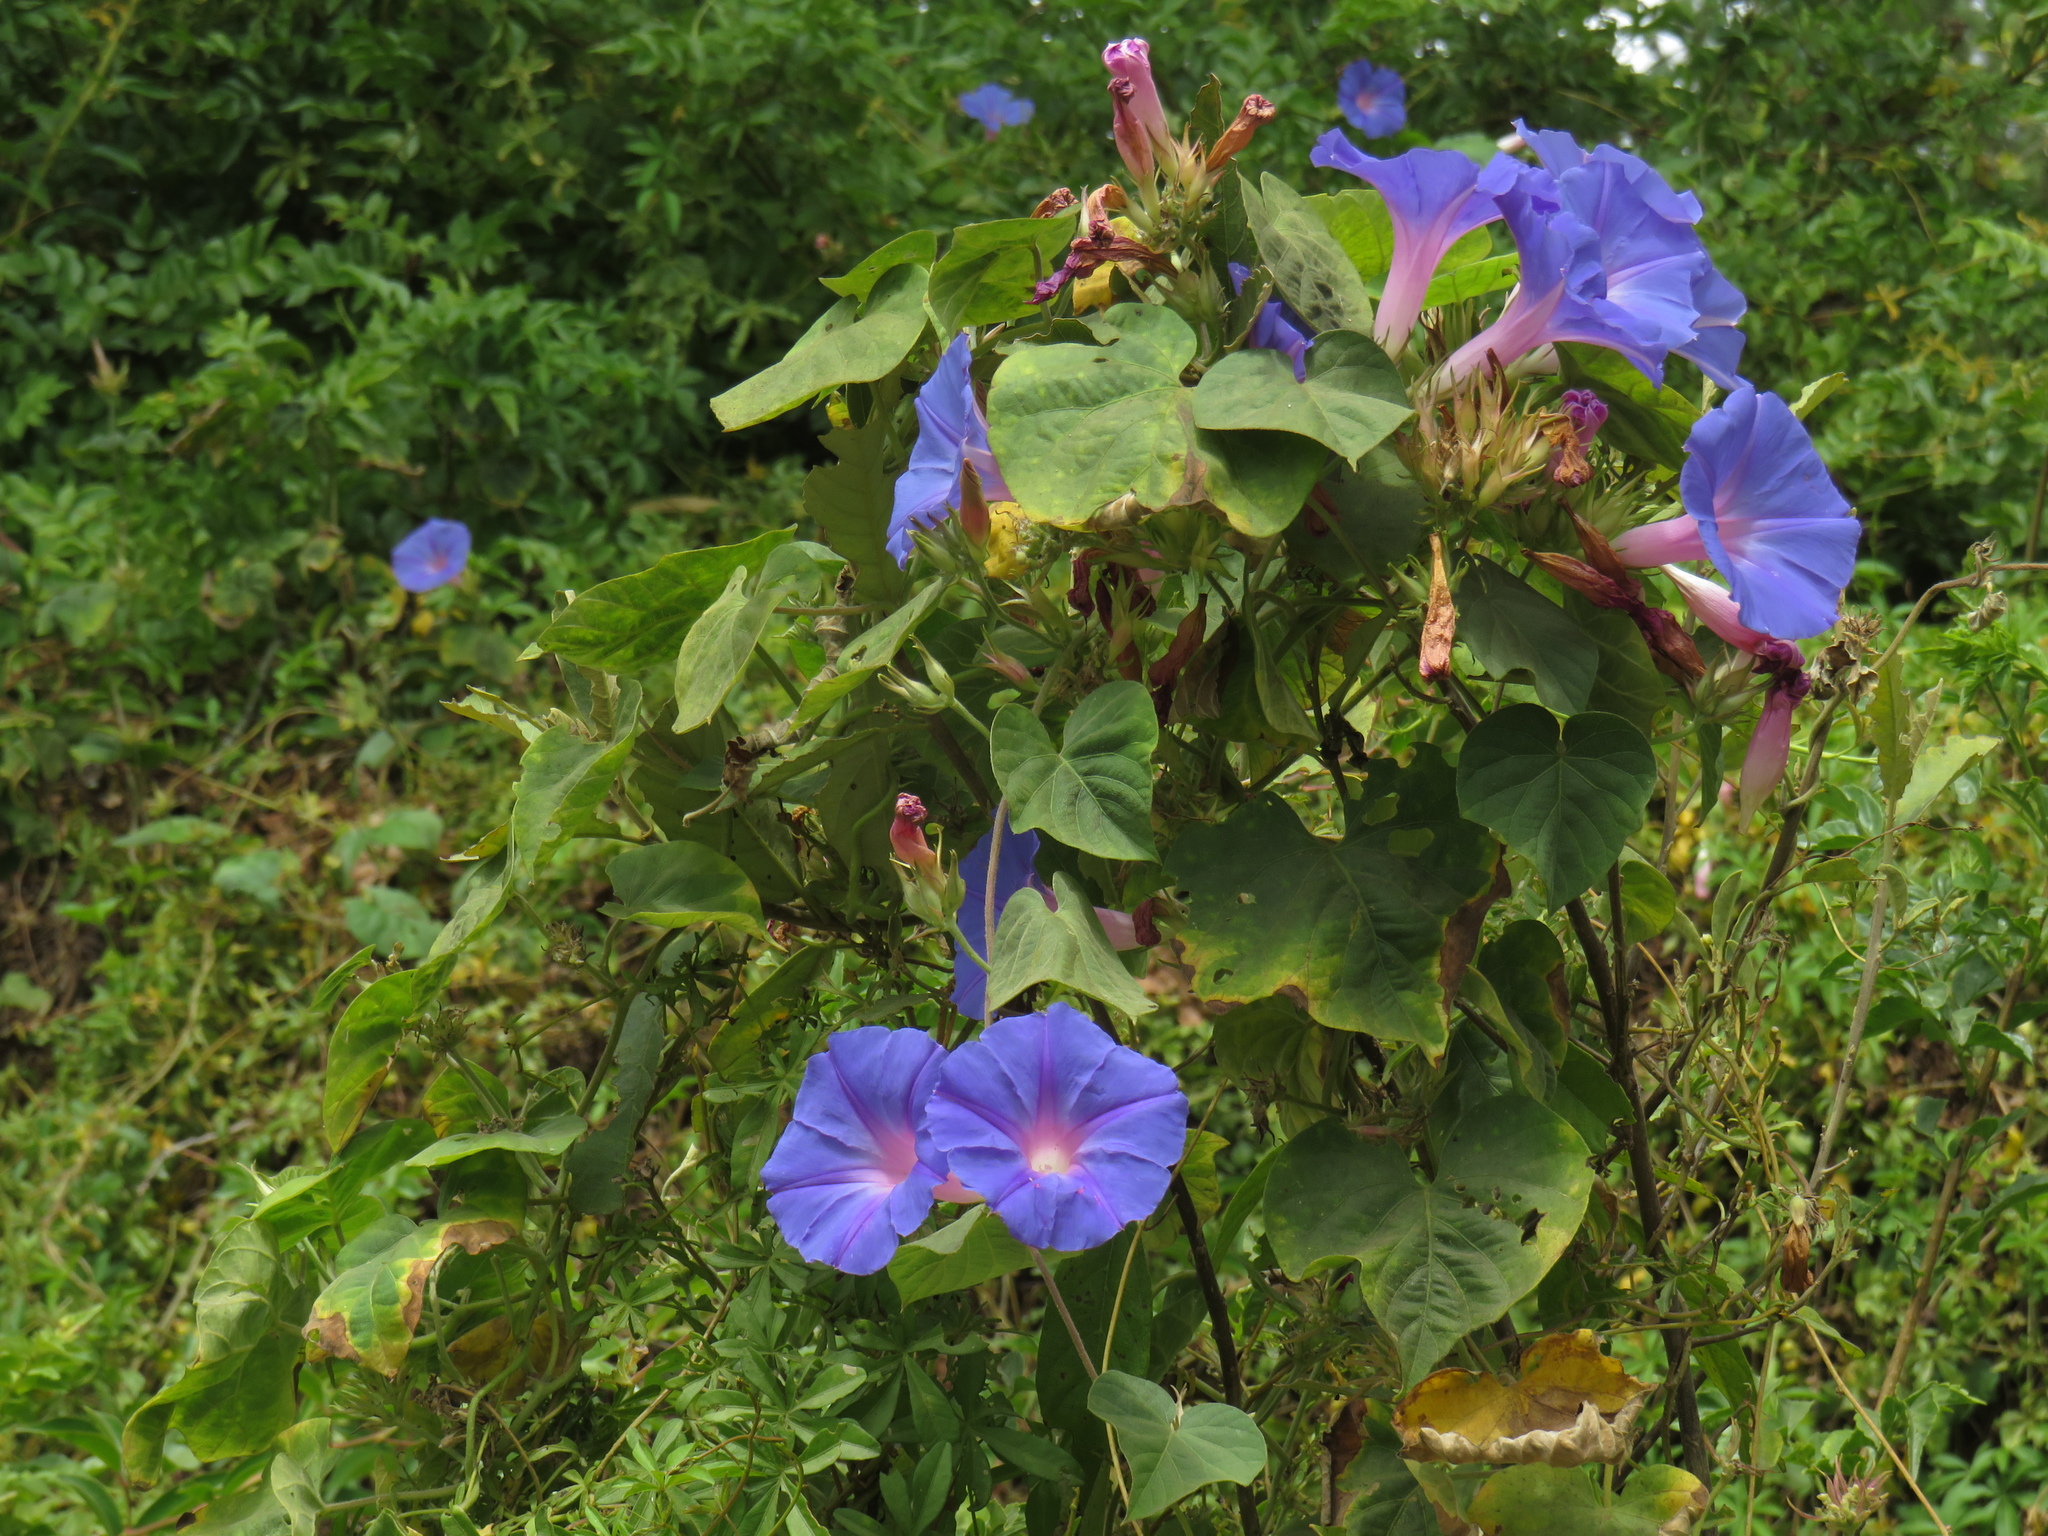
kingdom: Plantae
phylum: Tracheophyta
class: Magnoliopsida
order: Solanales
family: Convolvulaceae
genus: Ipomoea
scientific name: Ipomoea indica
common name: Blue dawnflower
